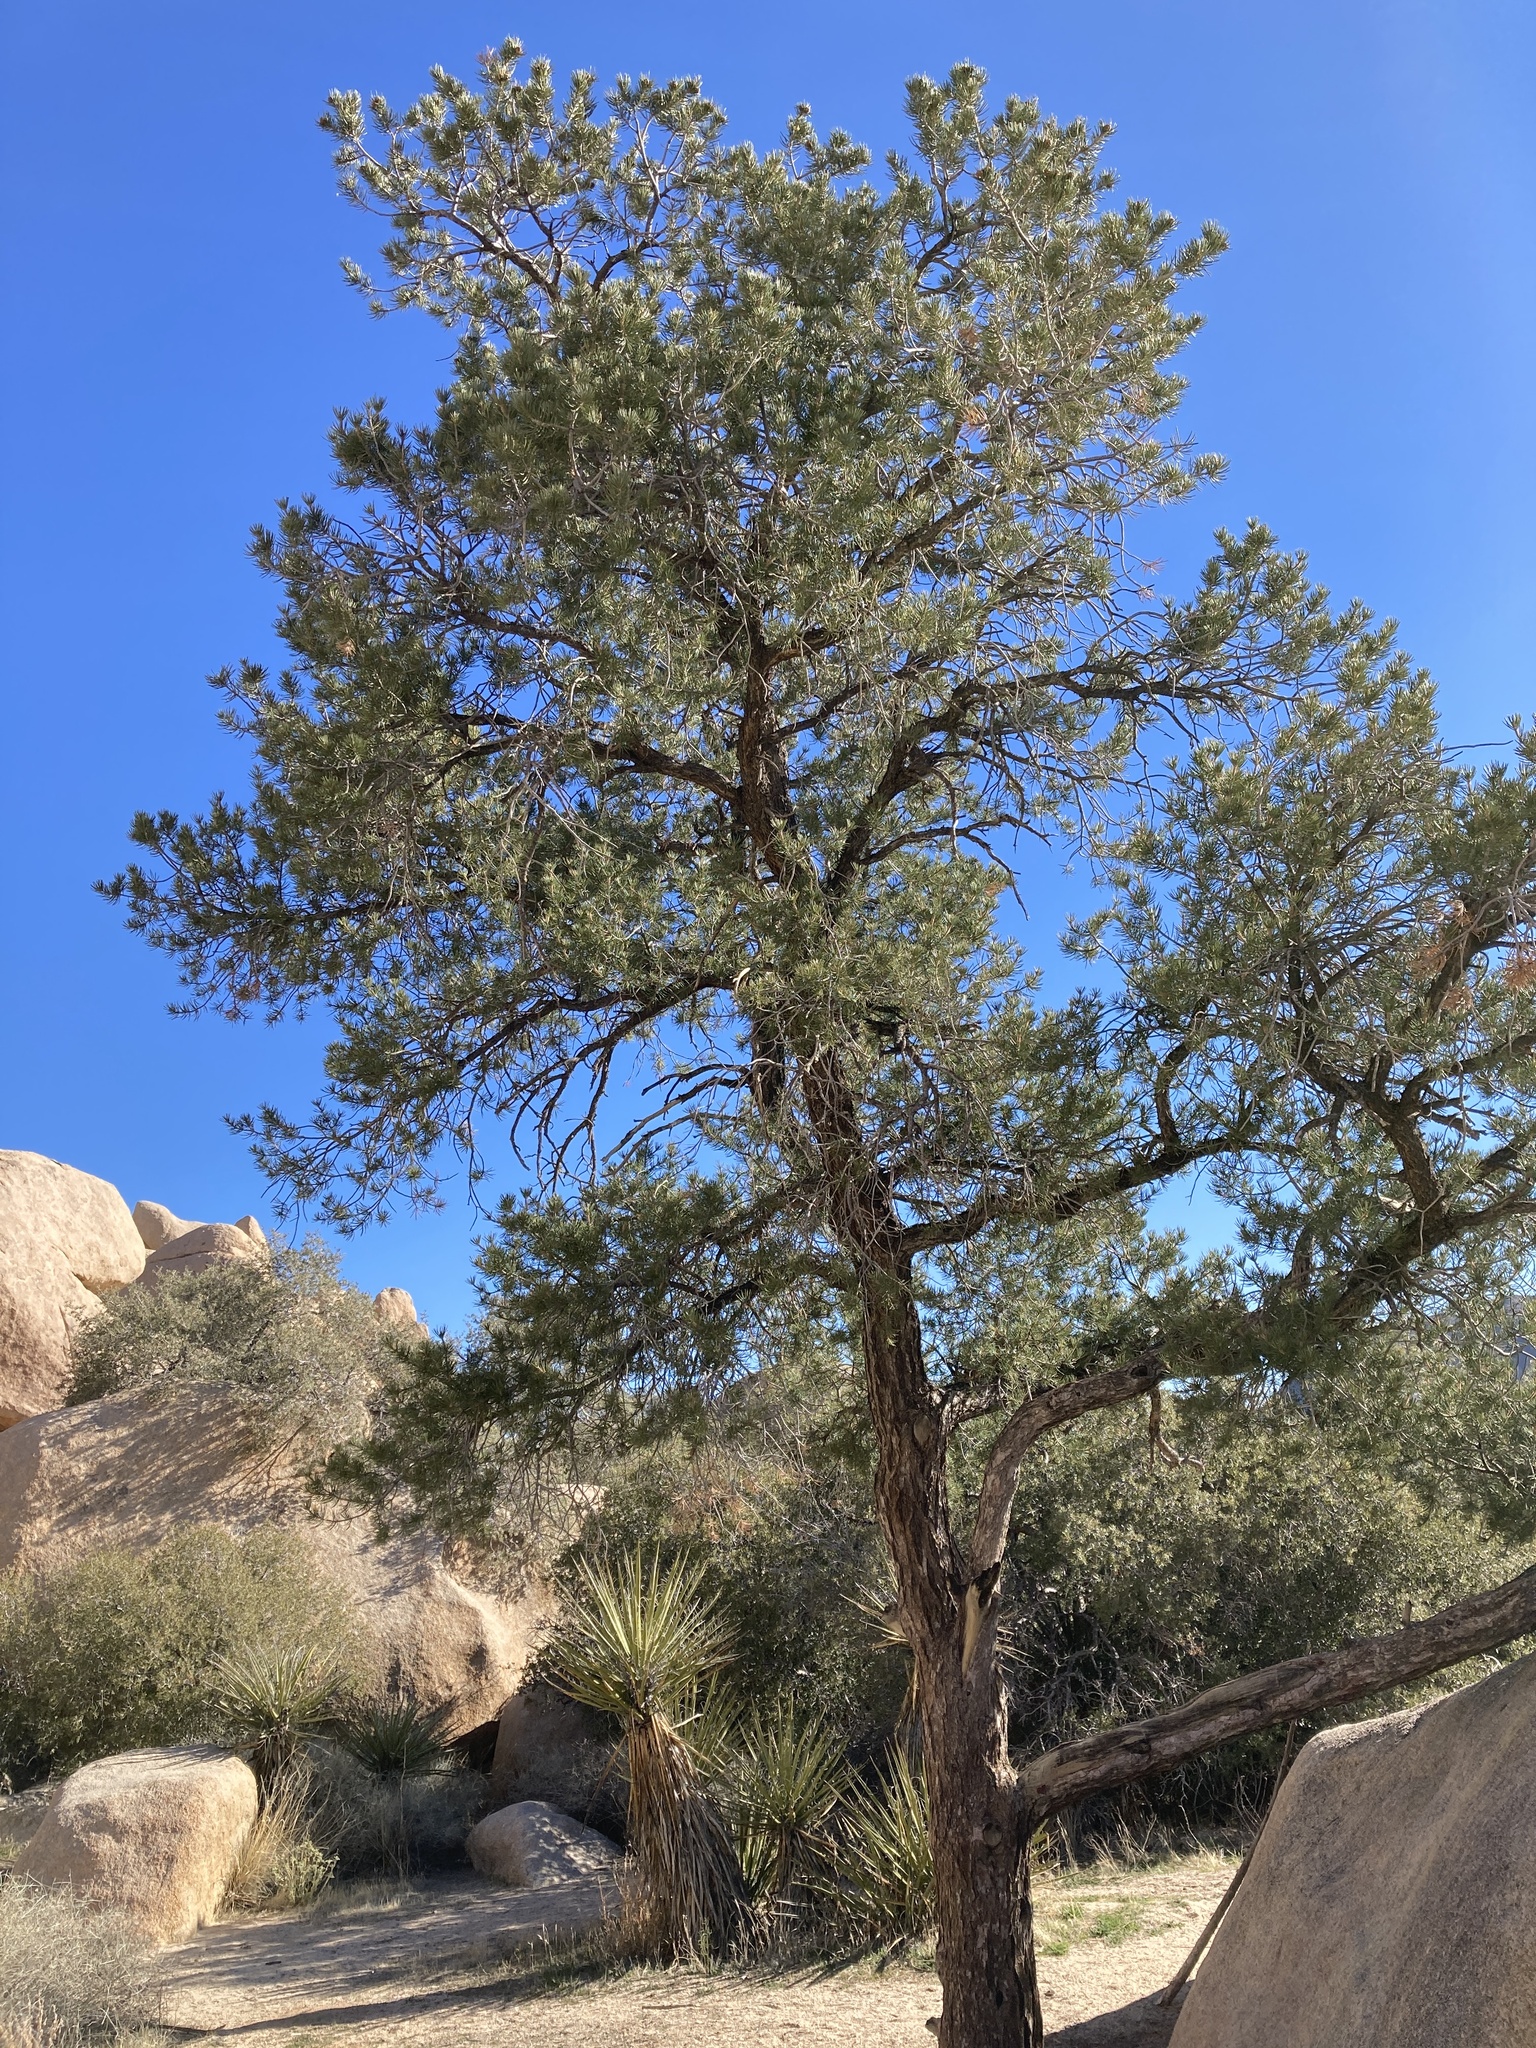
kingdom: Plantae
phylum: Tracheophyta
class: Pinopsida
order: Pinales
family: Pinaceae
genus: Pinus
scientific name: Pinus monophylla
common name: One-leaved nut pine
